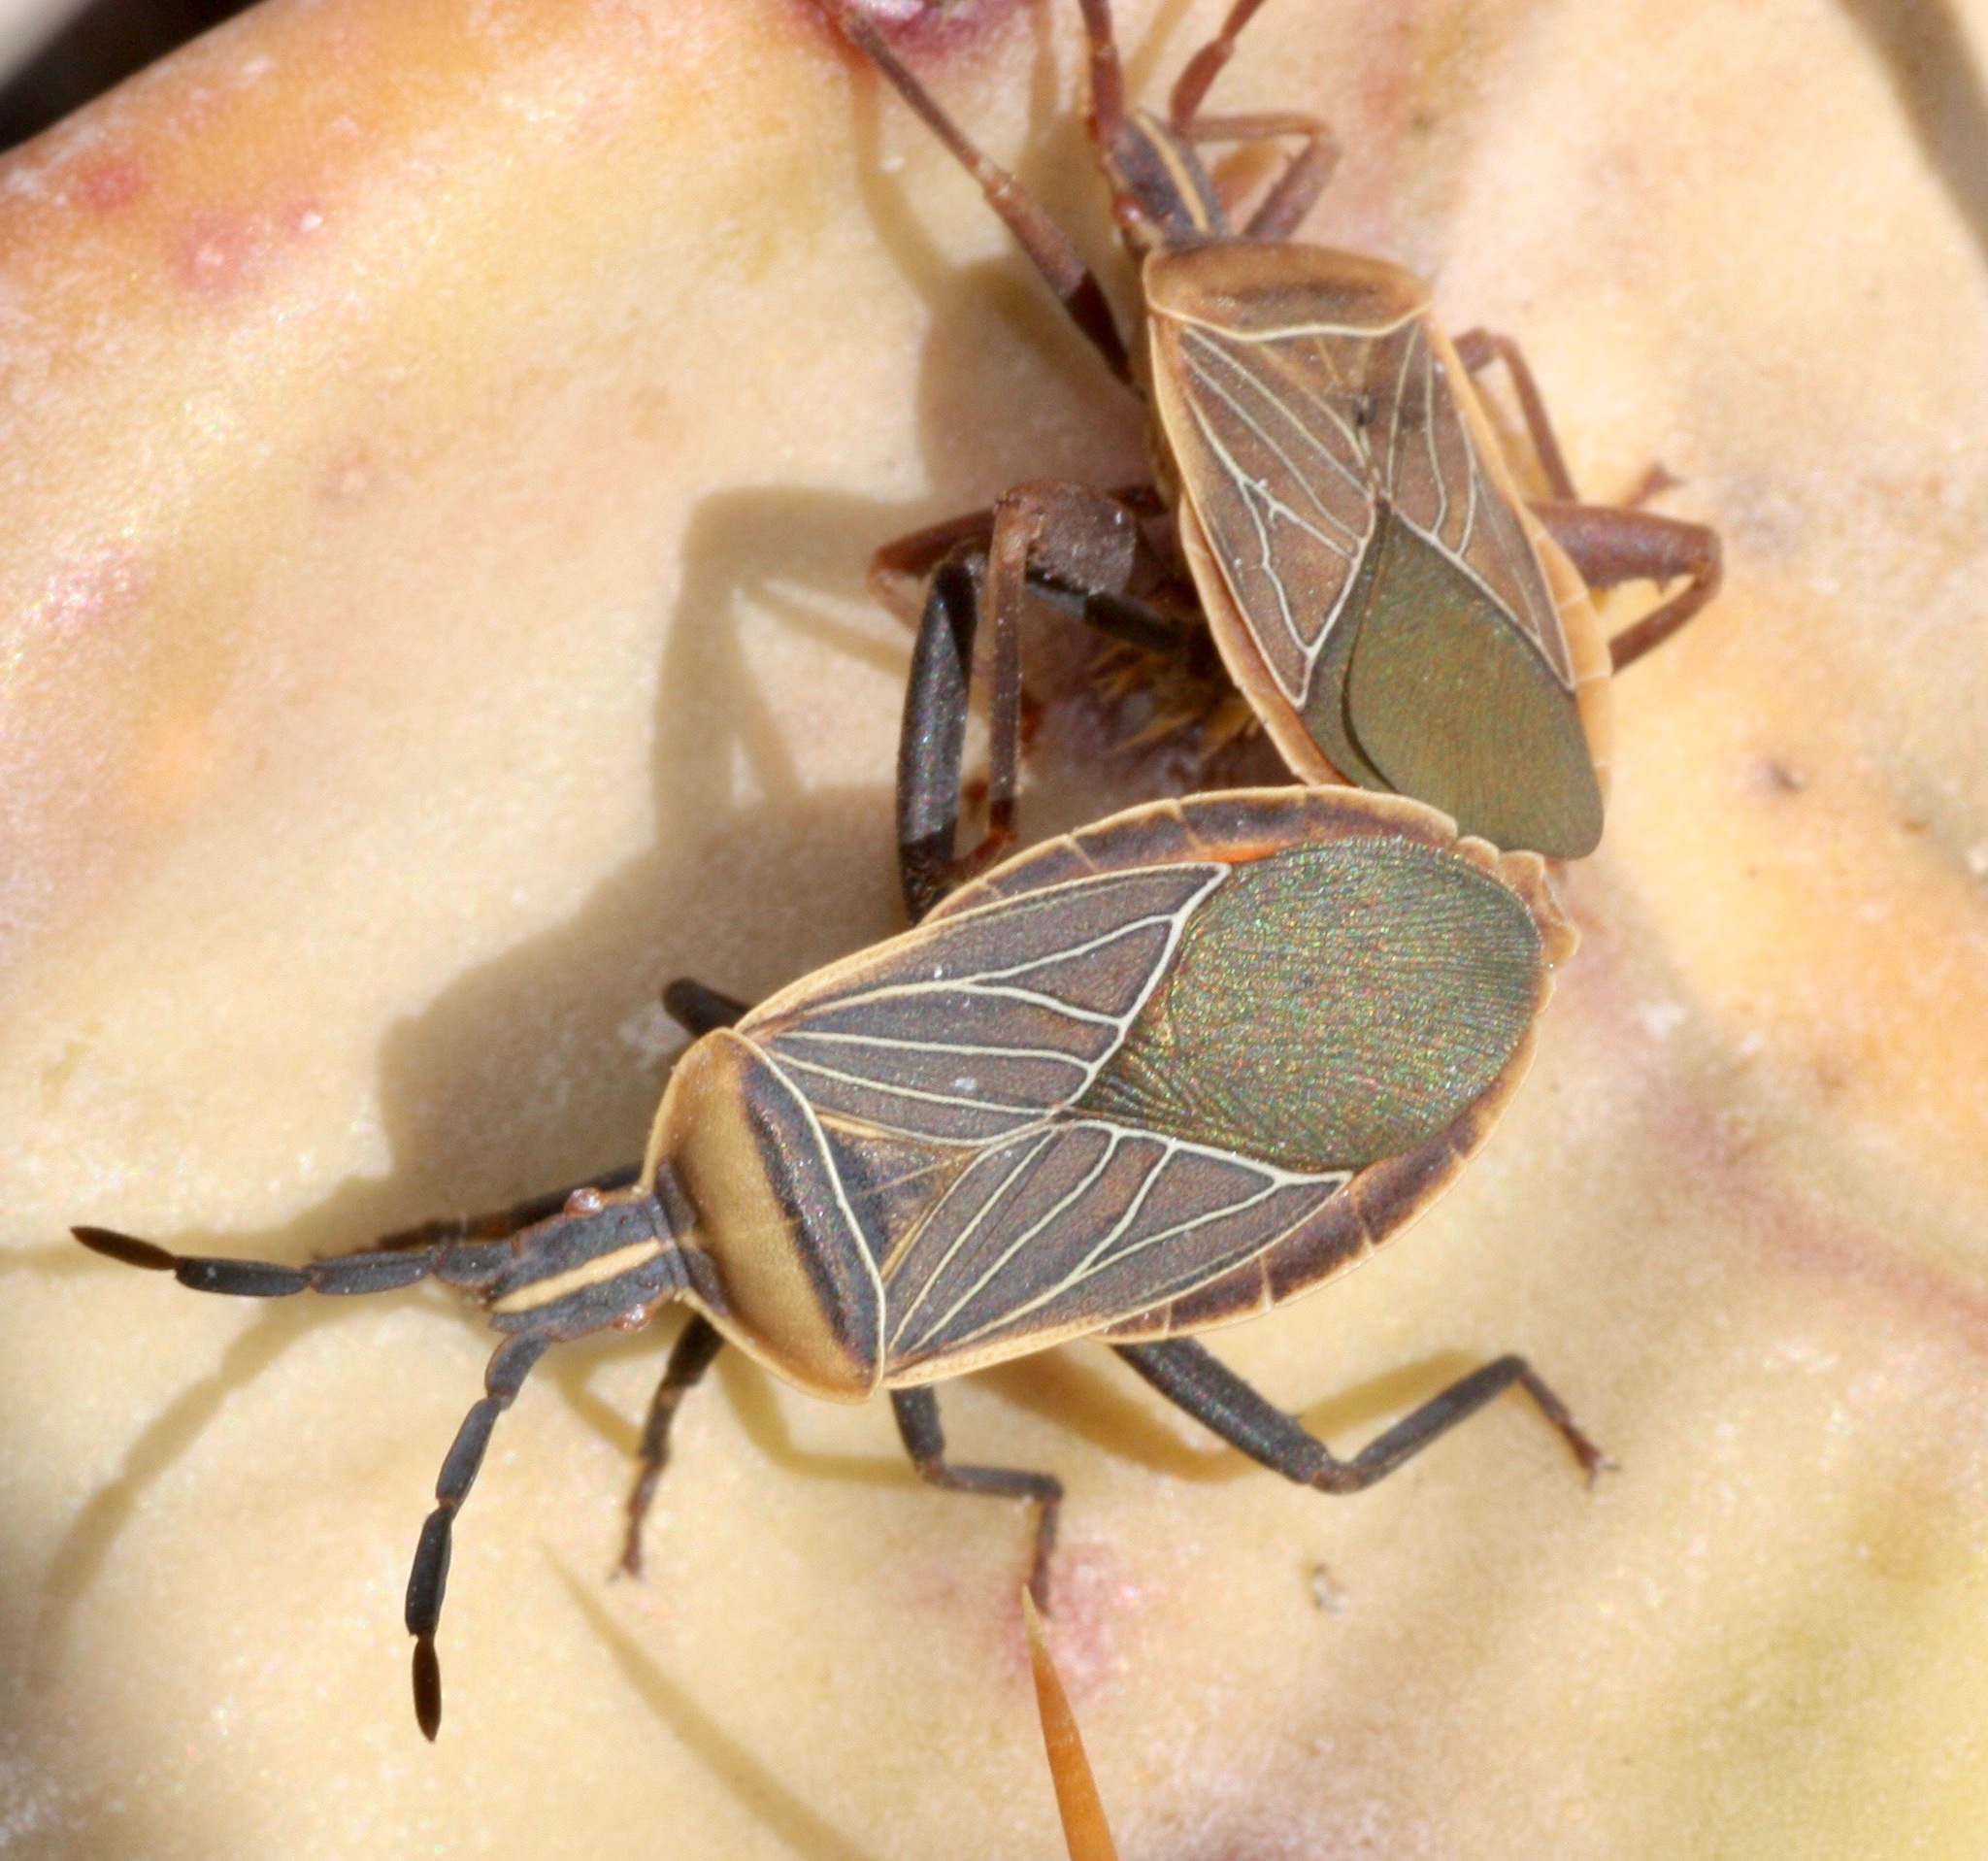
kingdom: Animalia
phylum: Arthropoda
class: Insecta
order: Hemiptera
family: Coreidae
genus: Chelinidea
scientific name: Chelinidea vittiger
